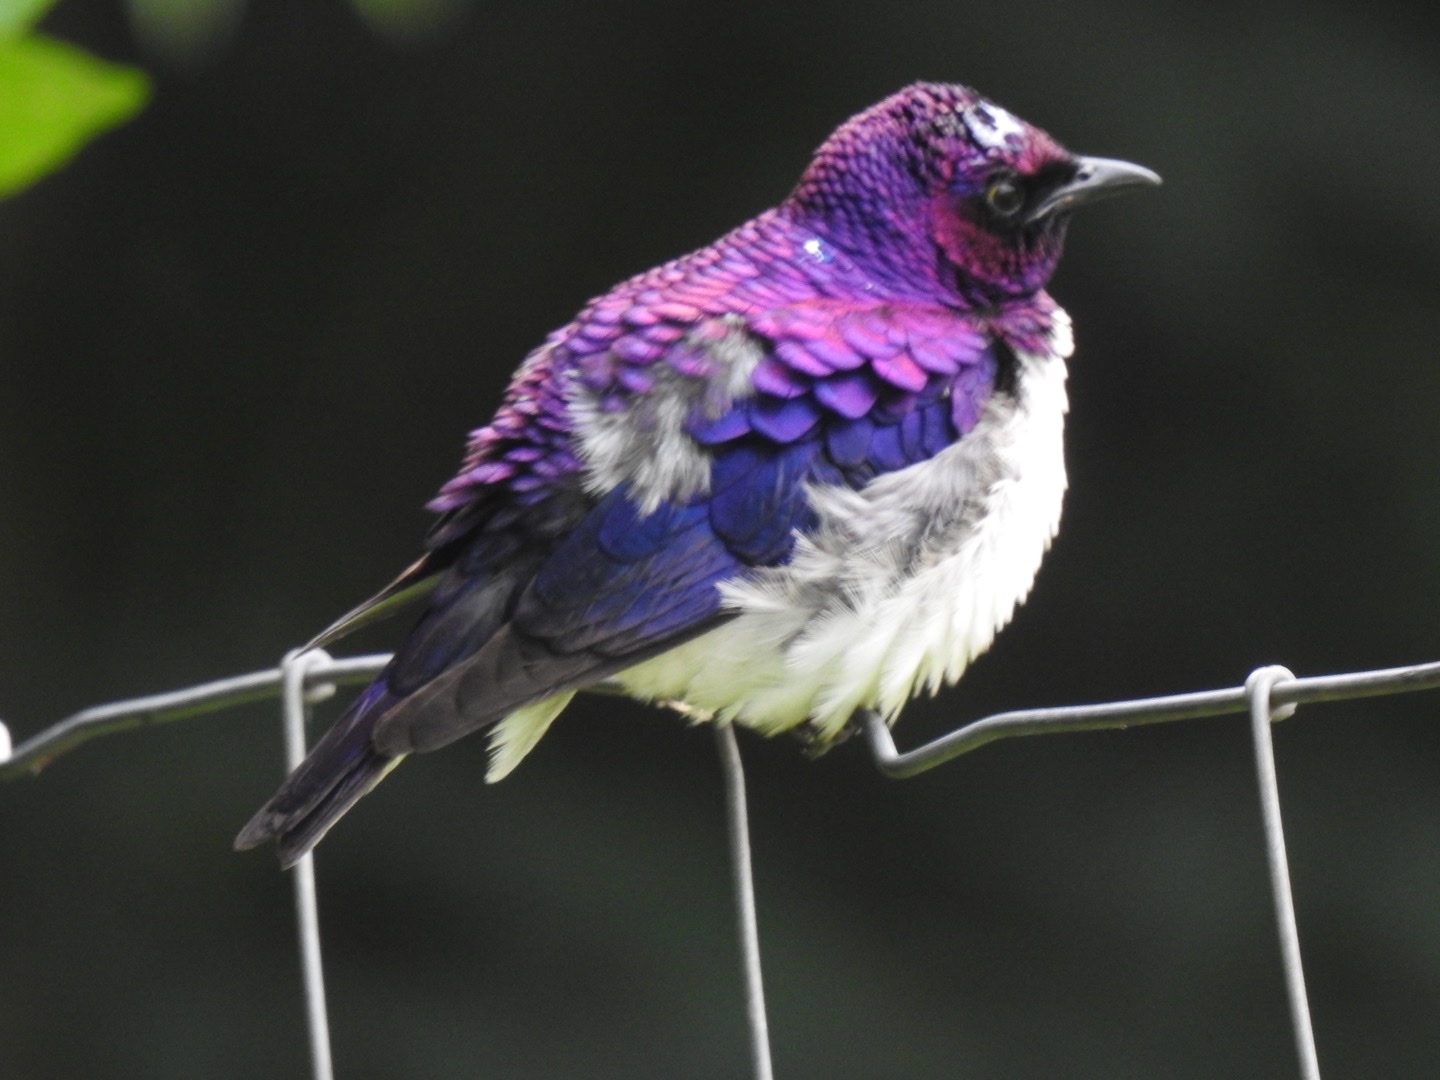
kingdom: Animalia
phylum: Chordata
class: Aves
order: Passeriformes
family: Sturnidae
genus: Cinnyricinclus
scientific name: Cinnyricinclus leucogaster
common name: Violet-backed starling
